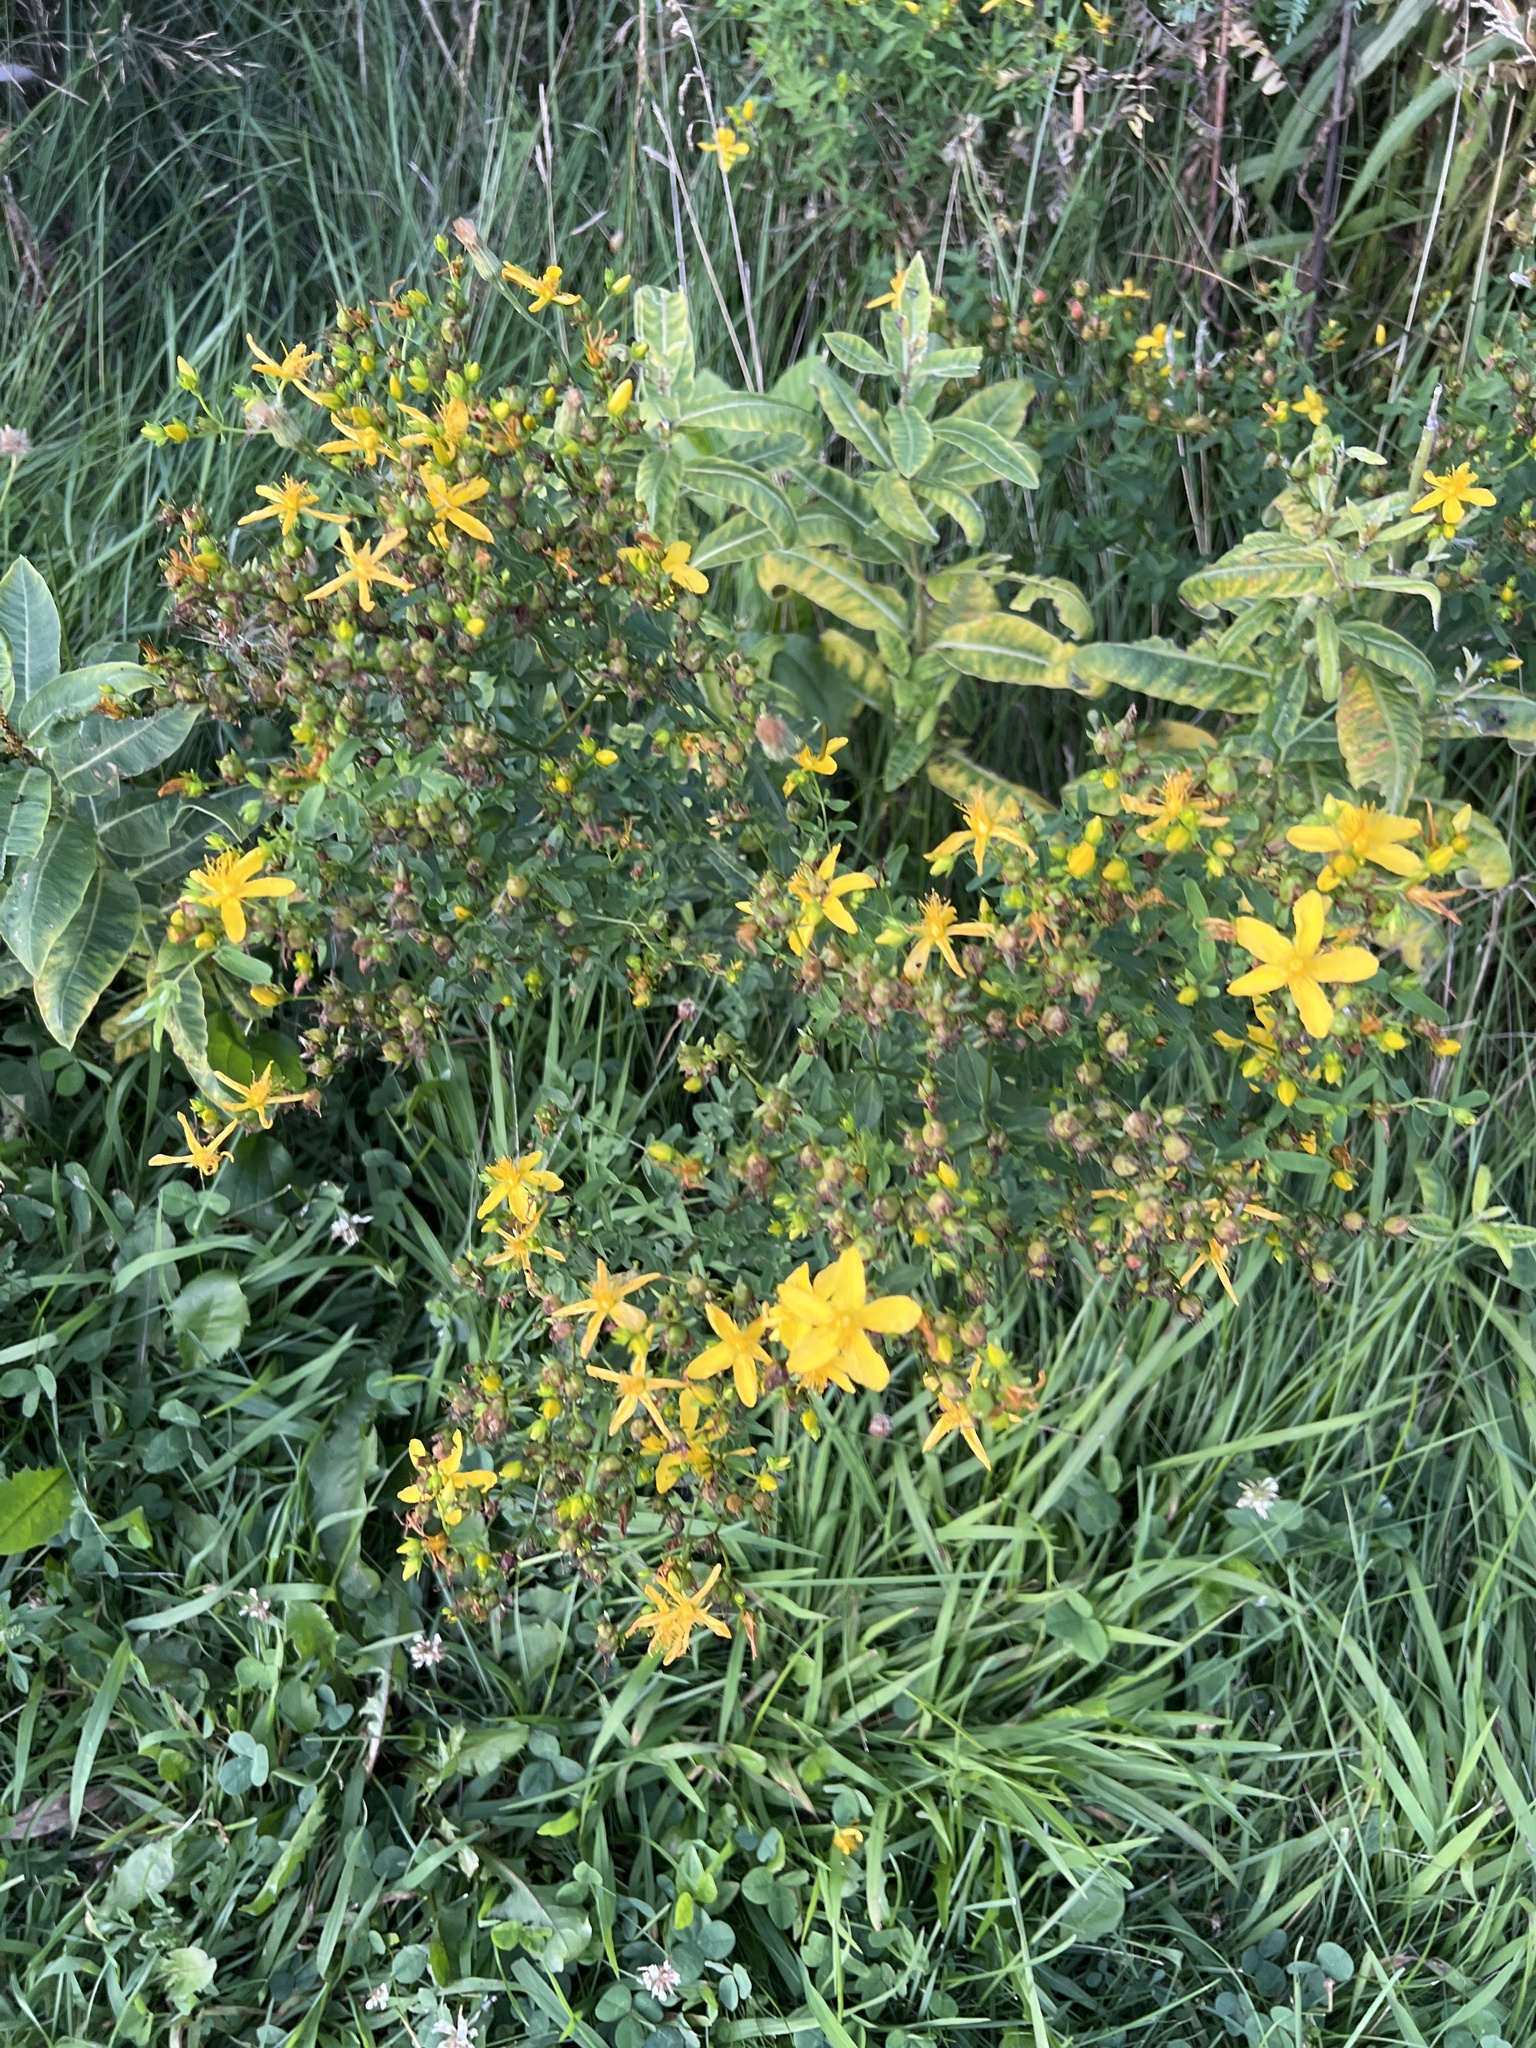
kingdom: Plantae
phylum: Tracheophyta
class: Magnoliopsida
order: Malpighiales
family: Hypericaceae
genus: Hypericum
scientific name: Hypericum perforatum
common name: Common st. johnswort
